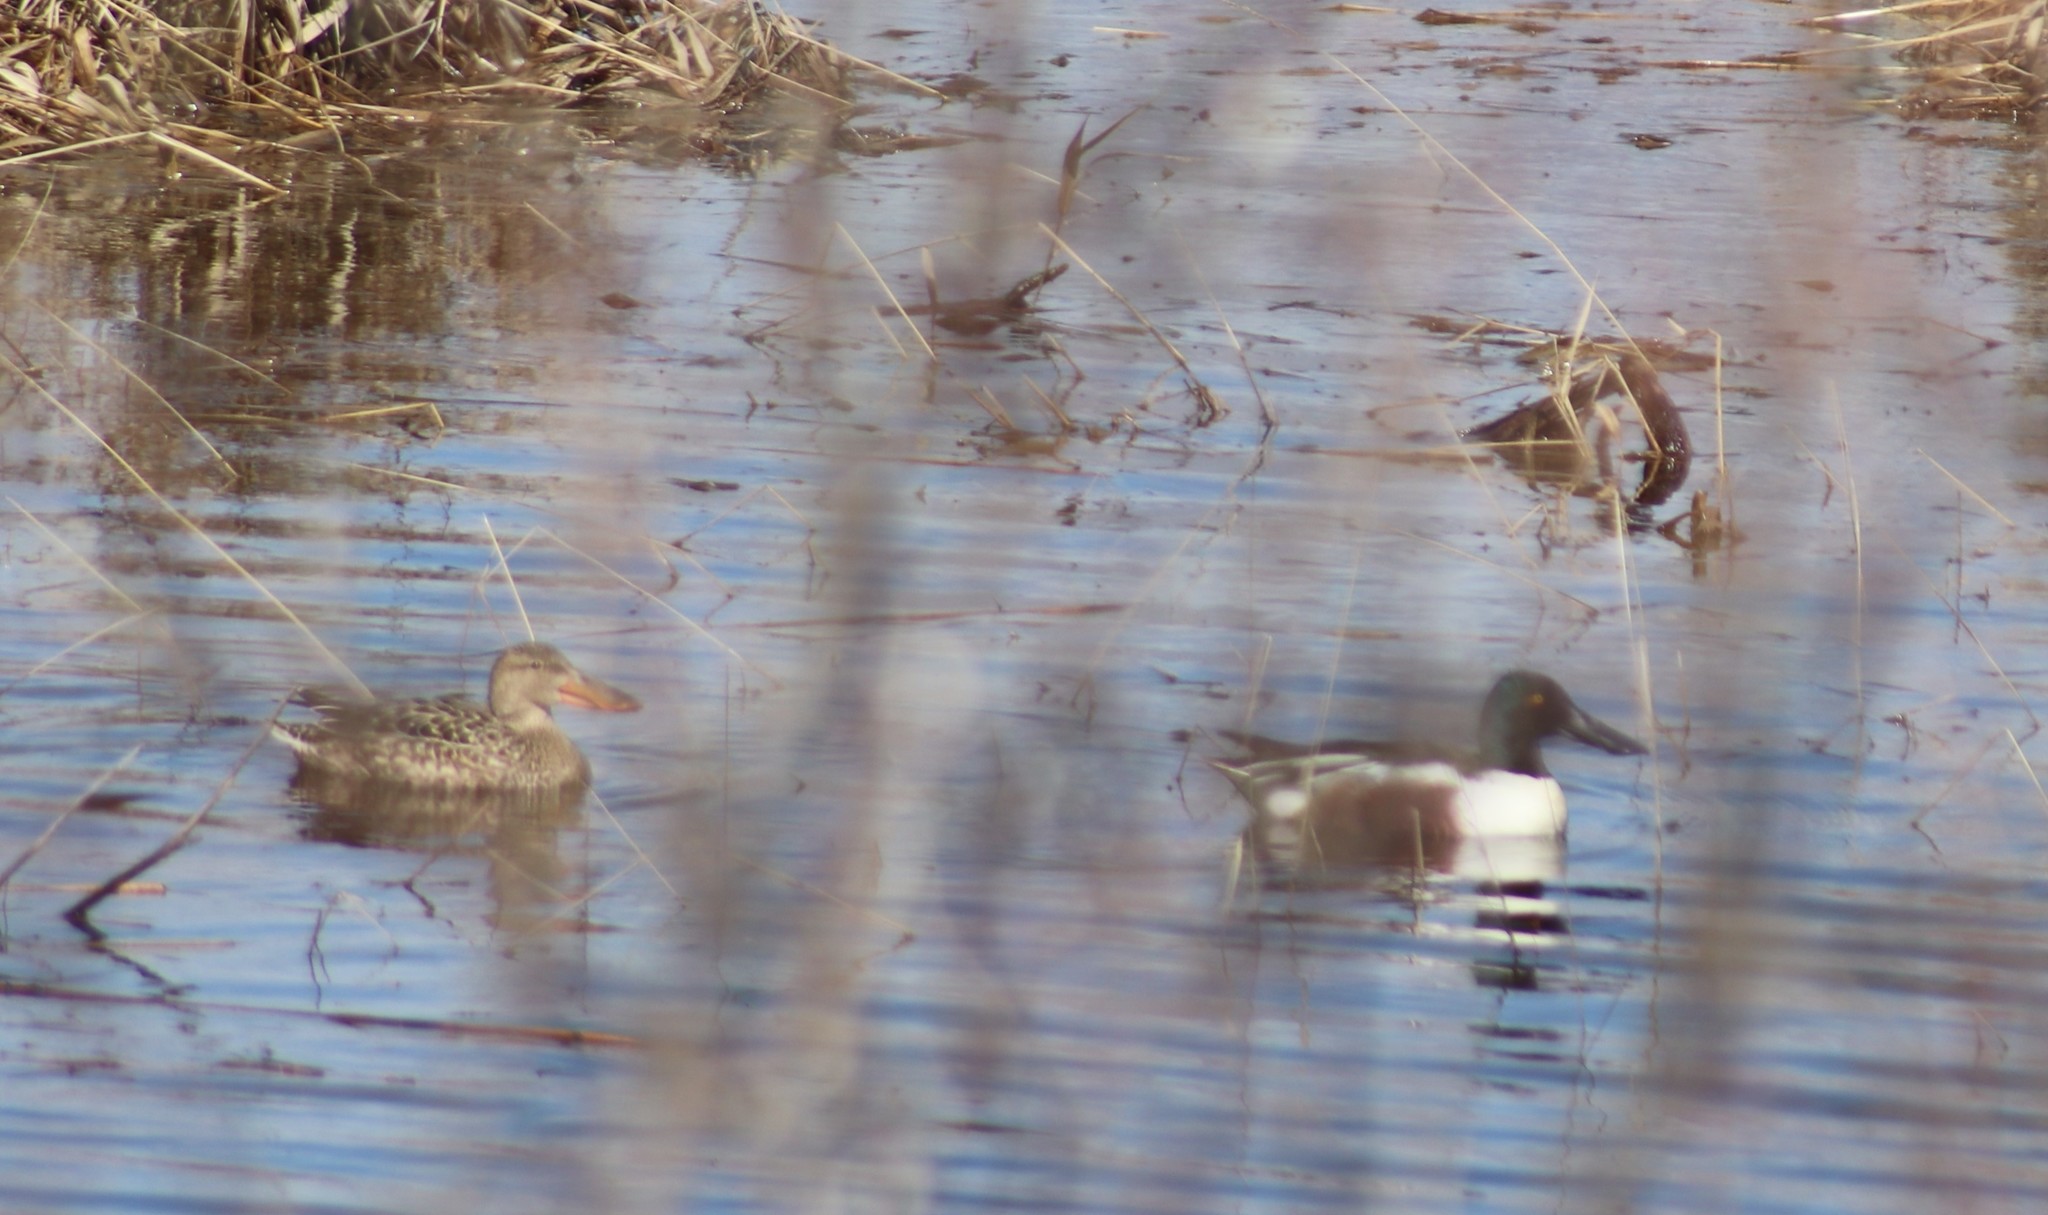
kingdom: Animalia
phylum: Chordata
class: Aves
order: Anseriformes
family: Anatidae
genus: Spatula
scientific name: Spatula clypeata
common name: Northern shoveler
